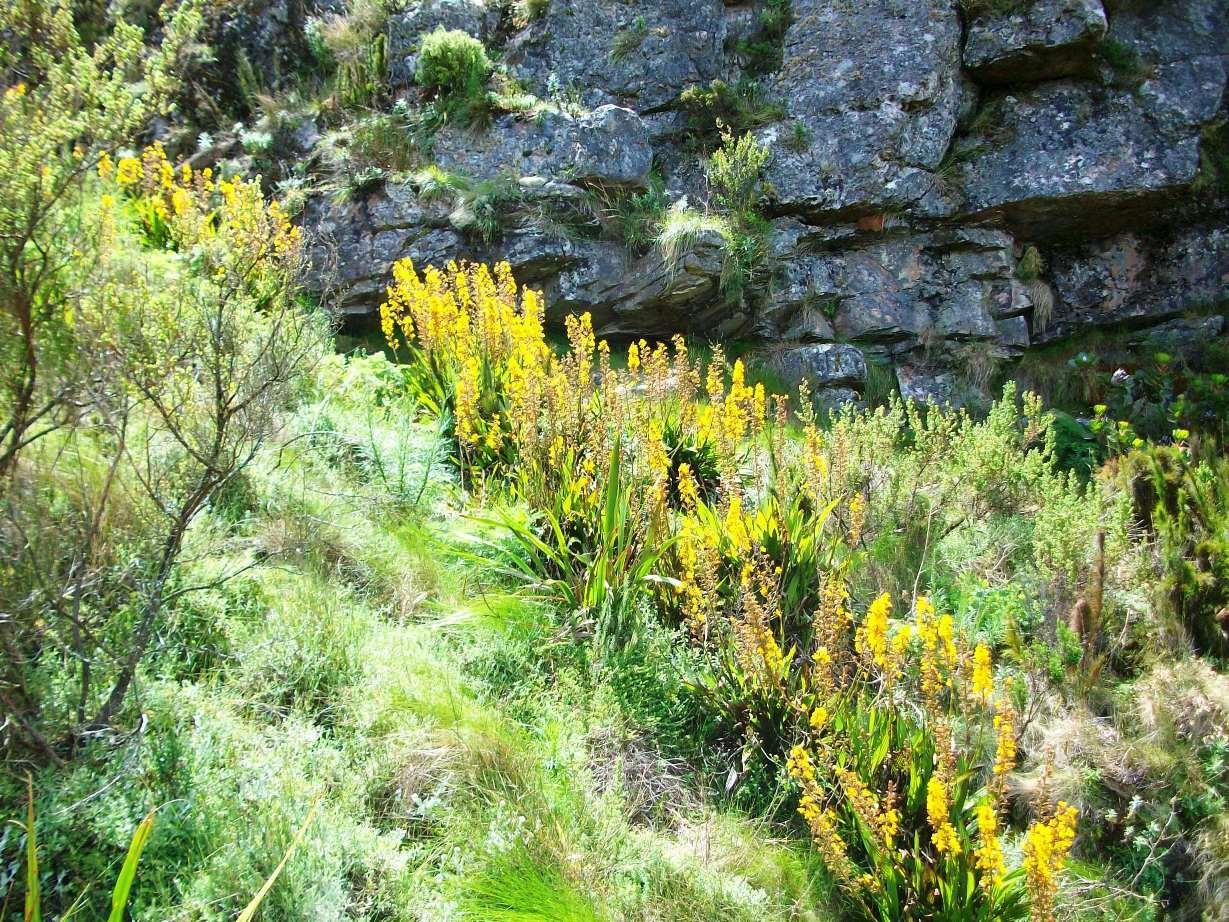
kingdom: Plantae
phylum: Tracheophyta
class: Liliopsida
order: Commelinales
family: Haemodoraceae
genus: Wachendorfia
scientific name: Wachendorfia thyrsiflora
